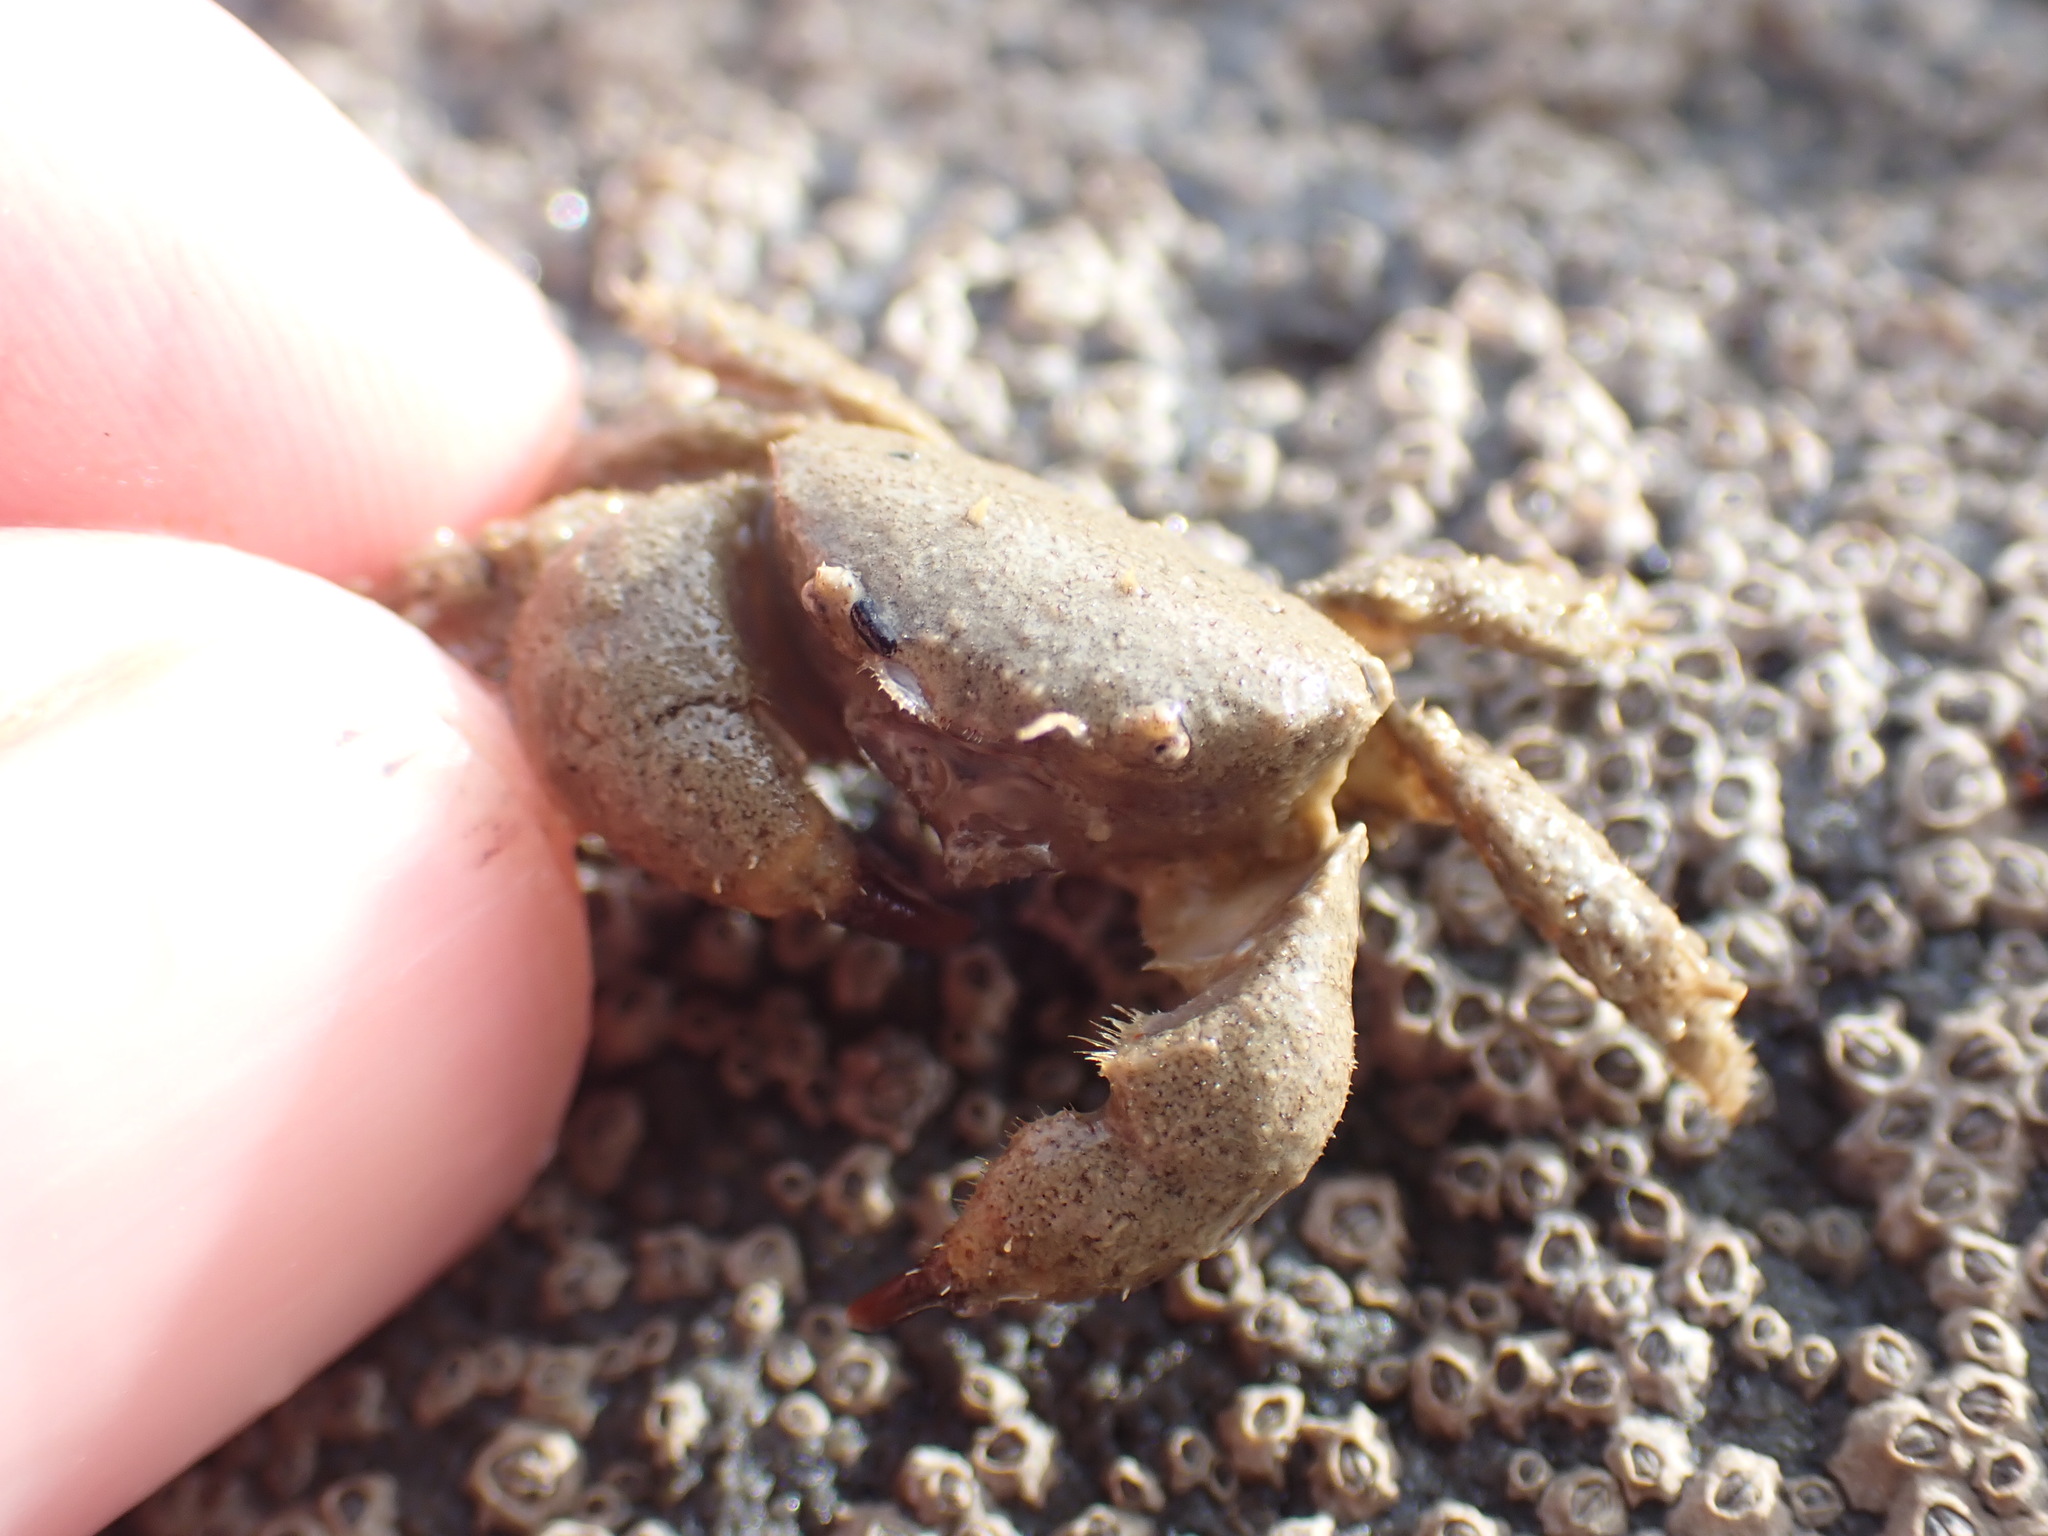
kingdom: Animalia
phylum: Arthropoda
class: Malacostraca
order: Decapoda
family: Pilumnidae
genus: Pilumnus
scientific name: Pilumnus lumpinus
